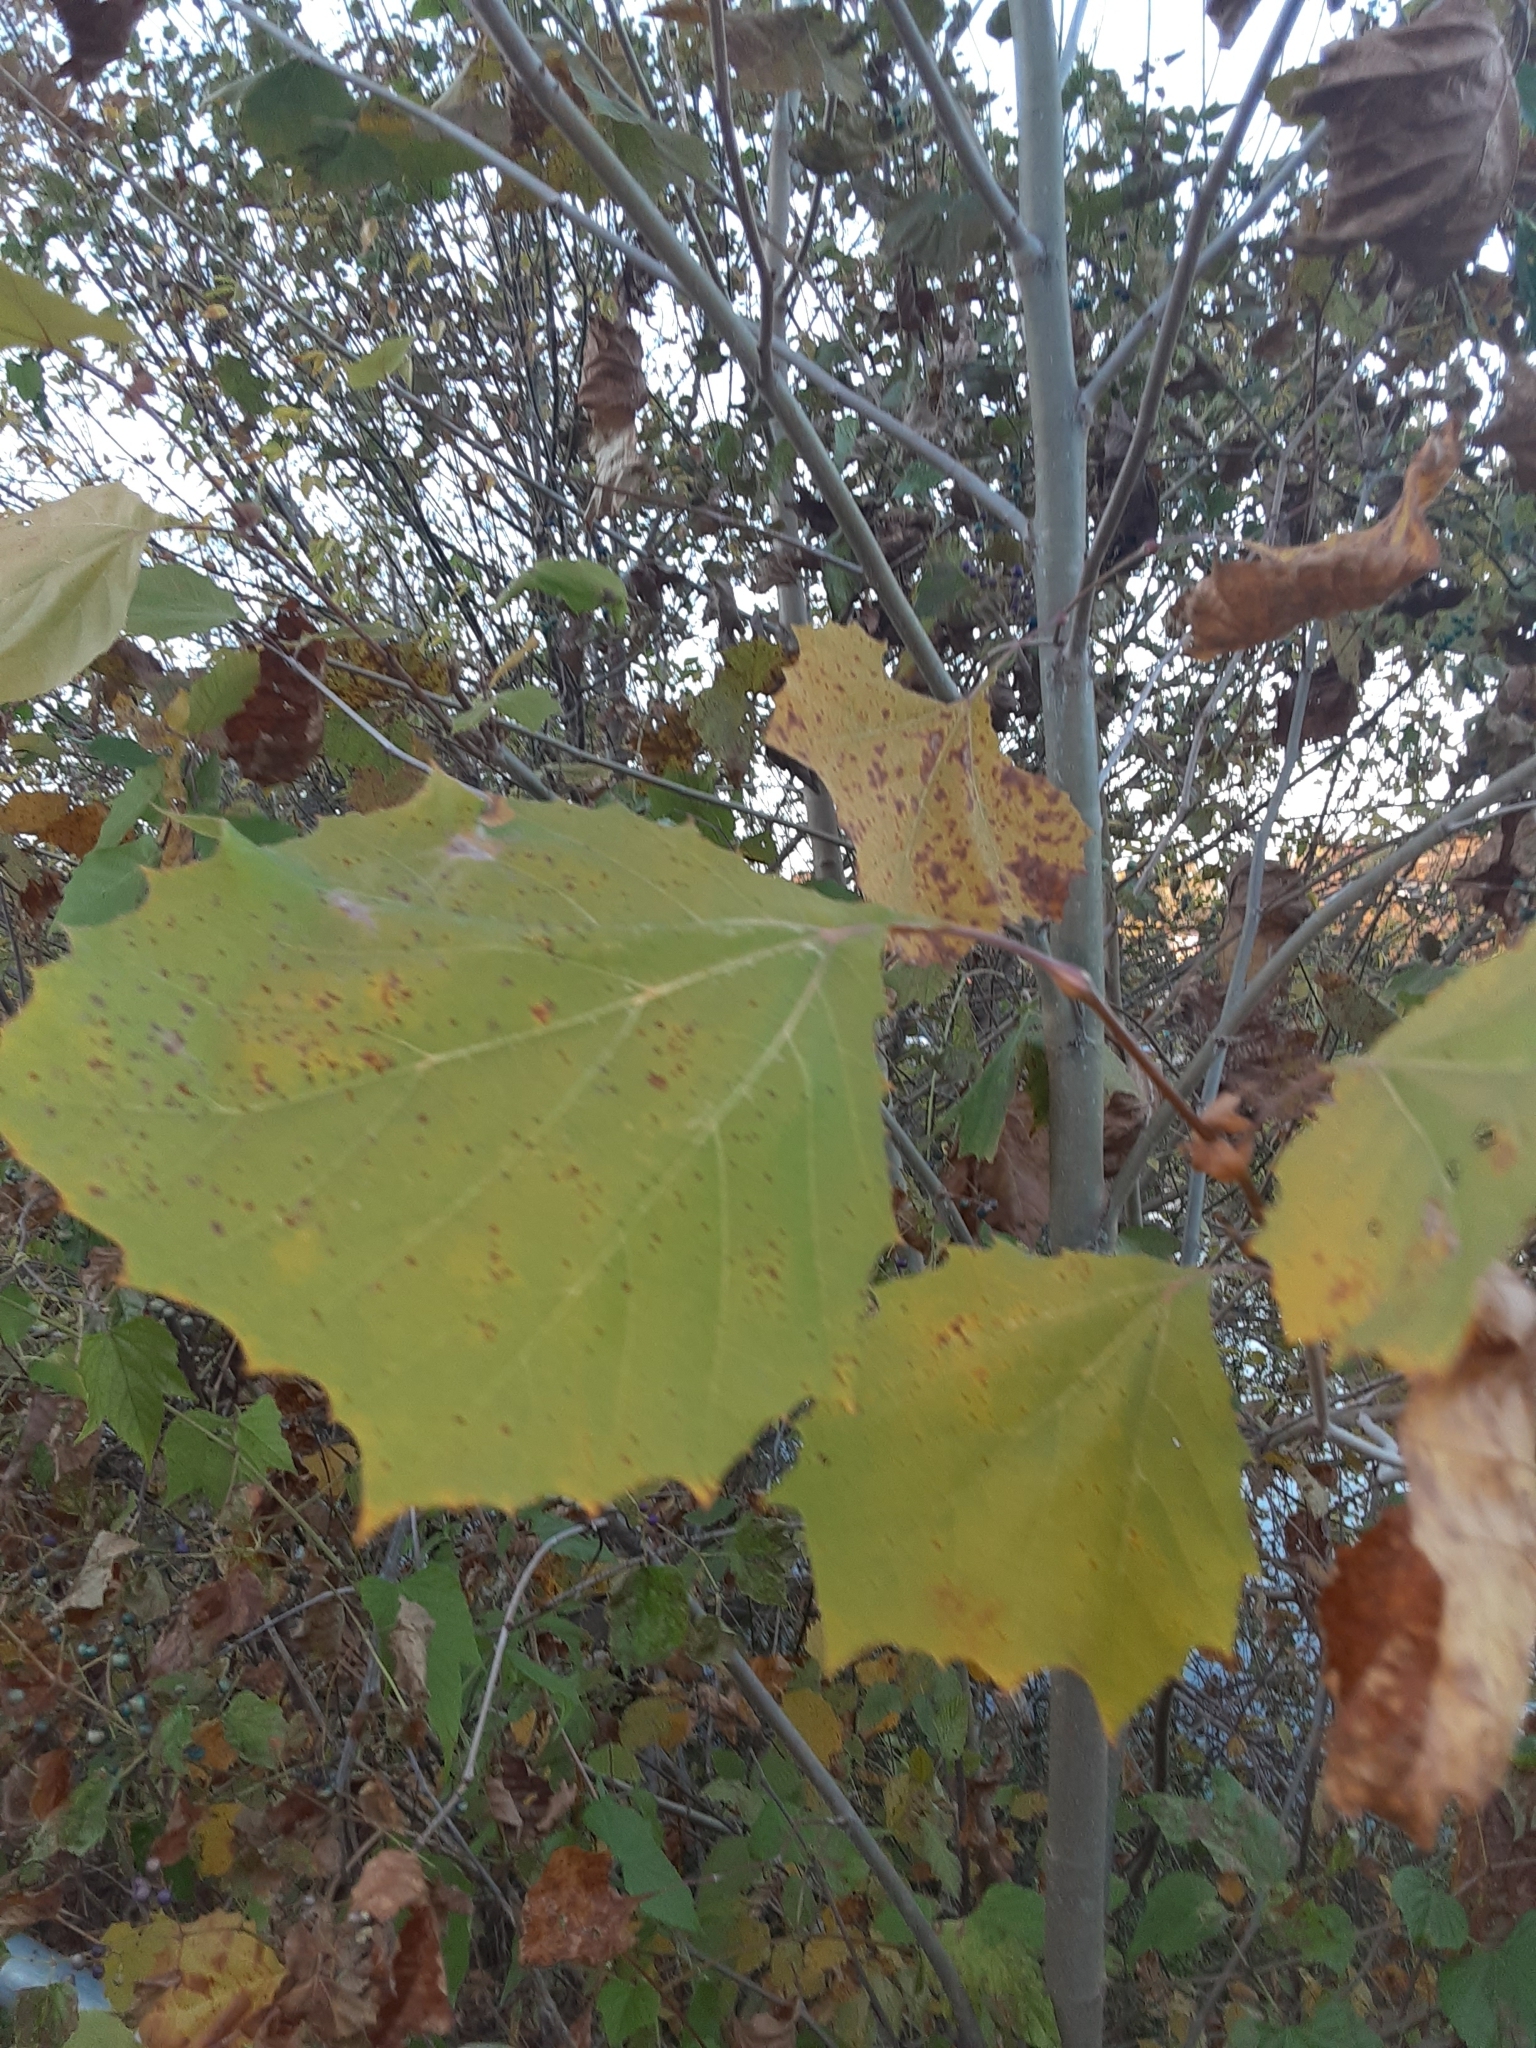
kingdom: Plantae
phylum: Tracheophyta
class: Magnoliopsida
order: Proteales
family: Platanaceae
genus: Platanus
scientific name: Platanus occidentalis
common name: American sycamore
